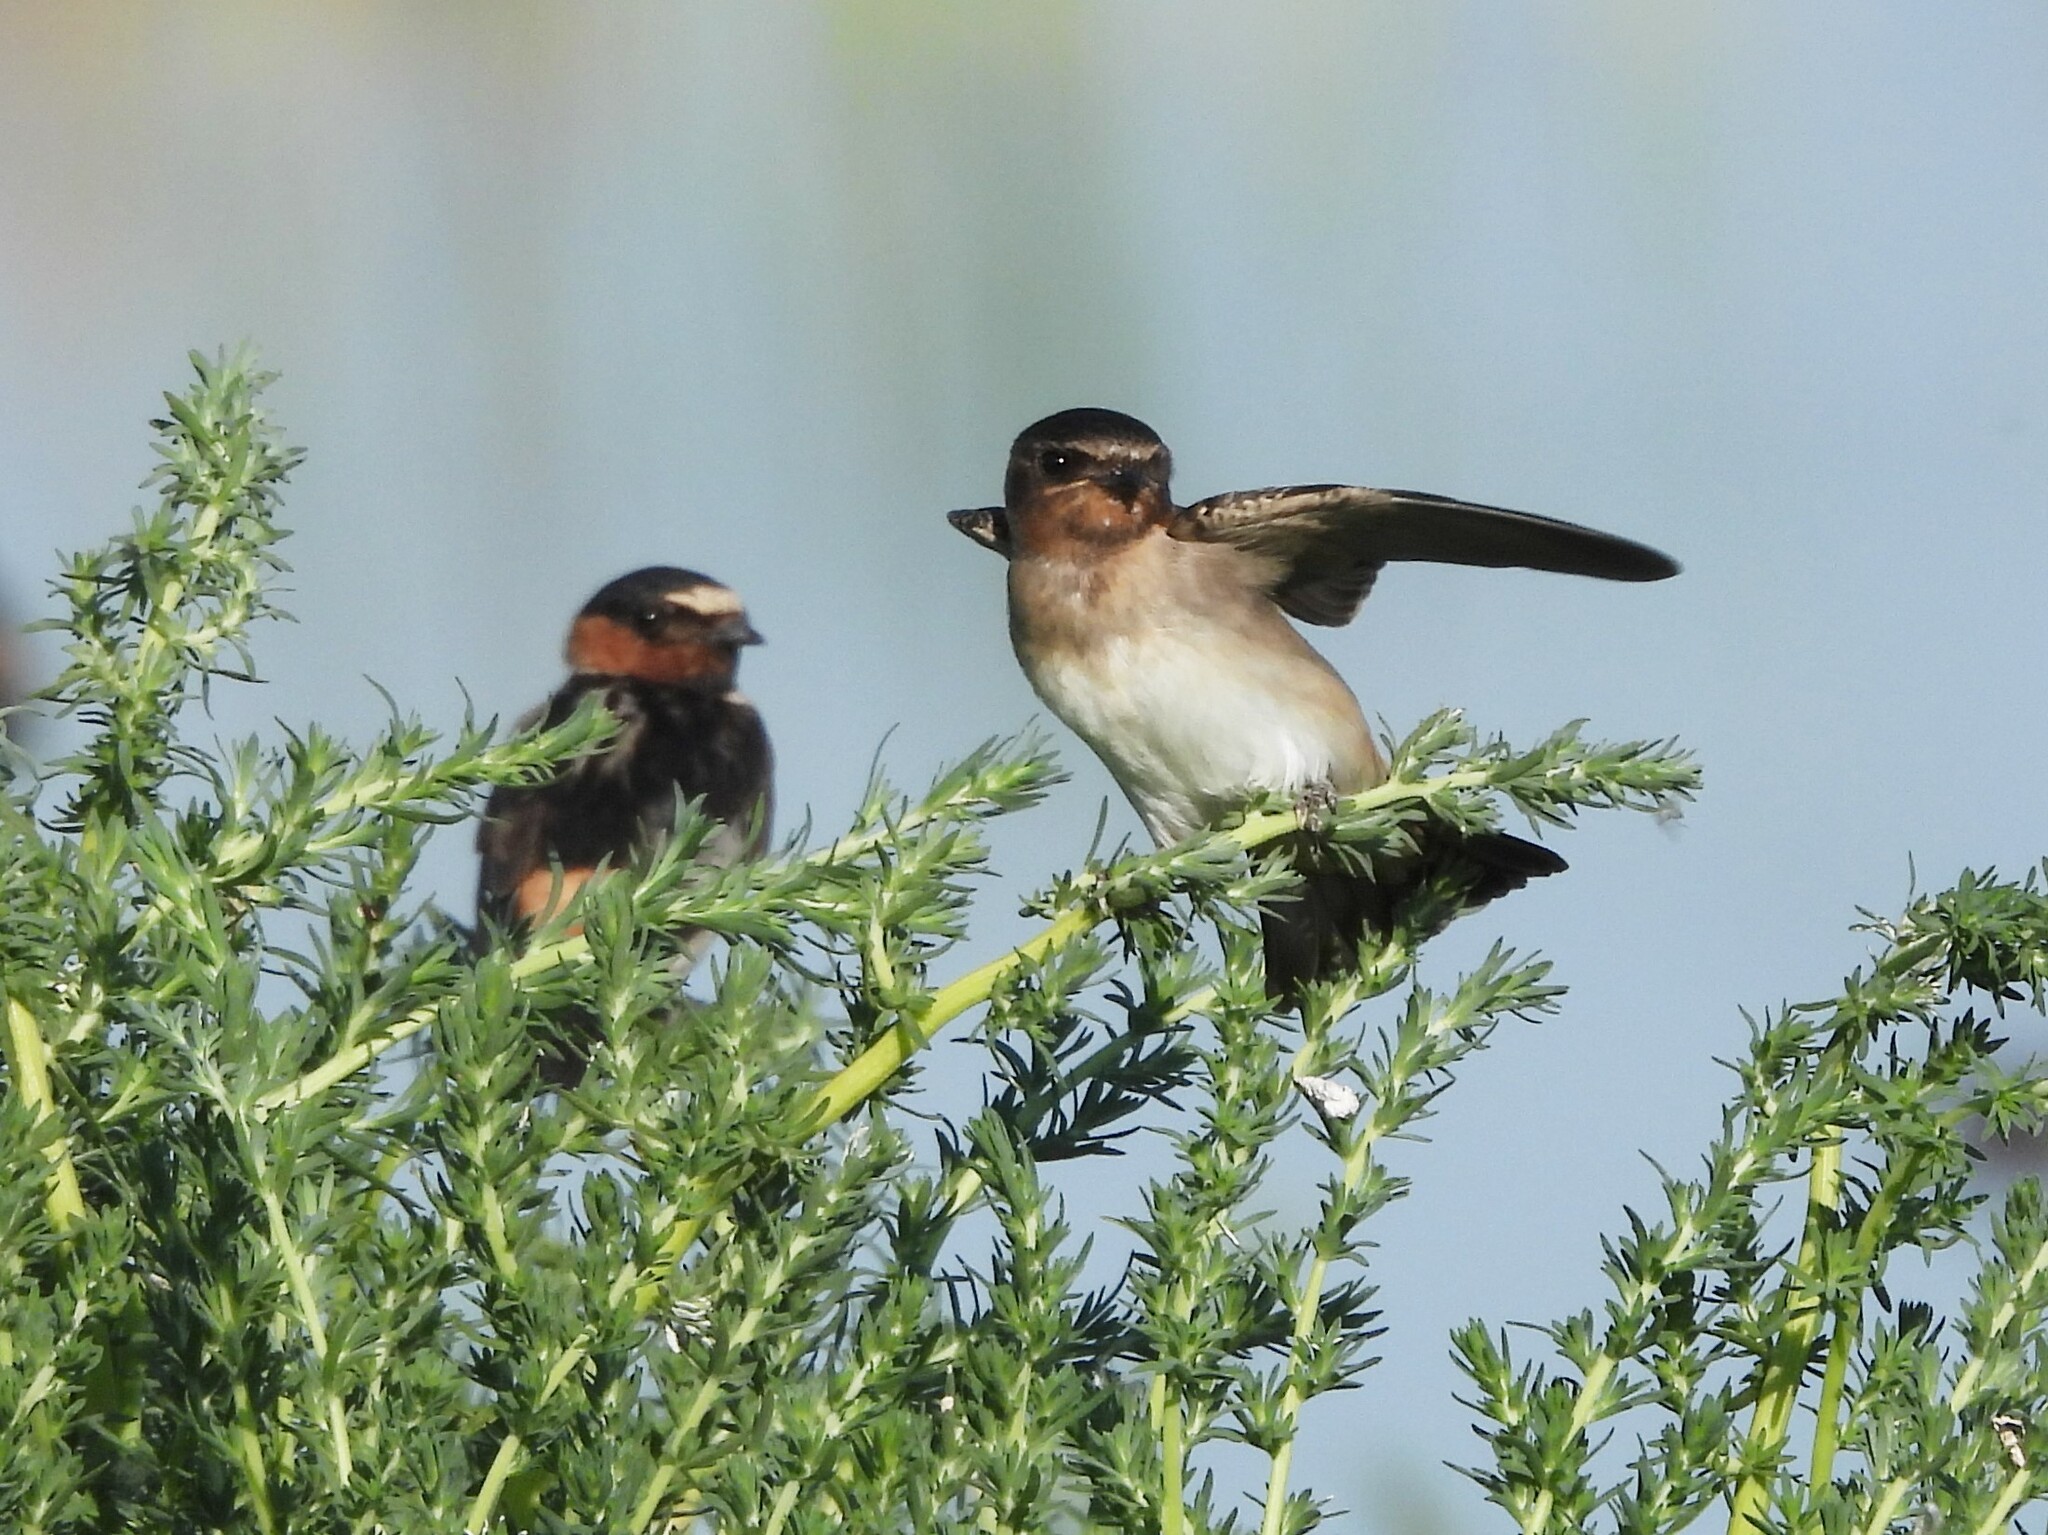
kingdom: Animalia
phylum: Chordata
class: Aves
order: Passeriformes
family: Hirundinidae
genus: Petrochelidon
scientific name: Petrochelidon pyrrhonota
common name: American cliff swallow
